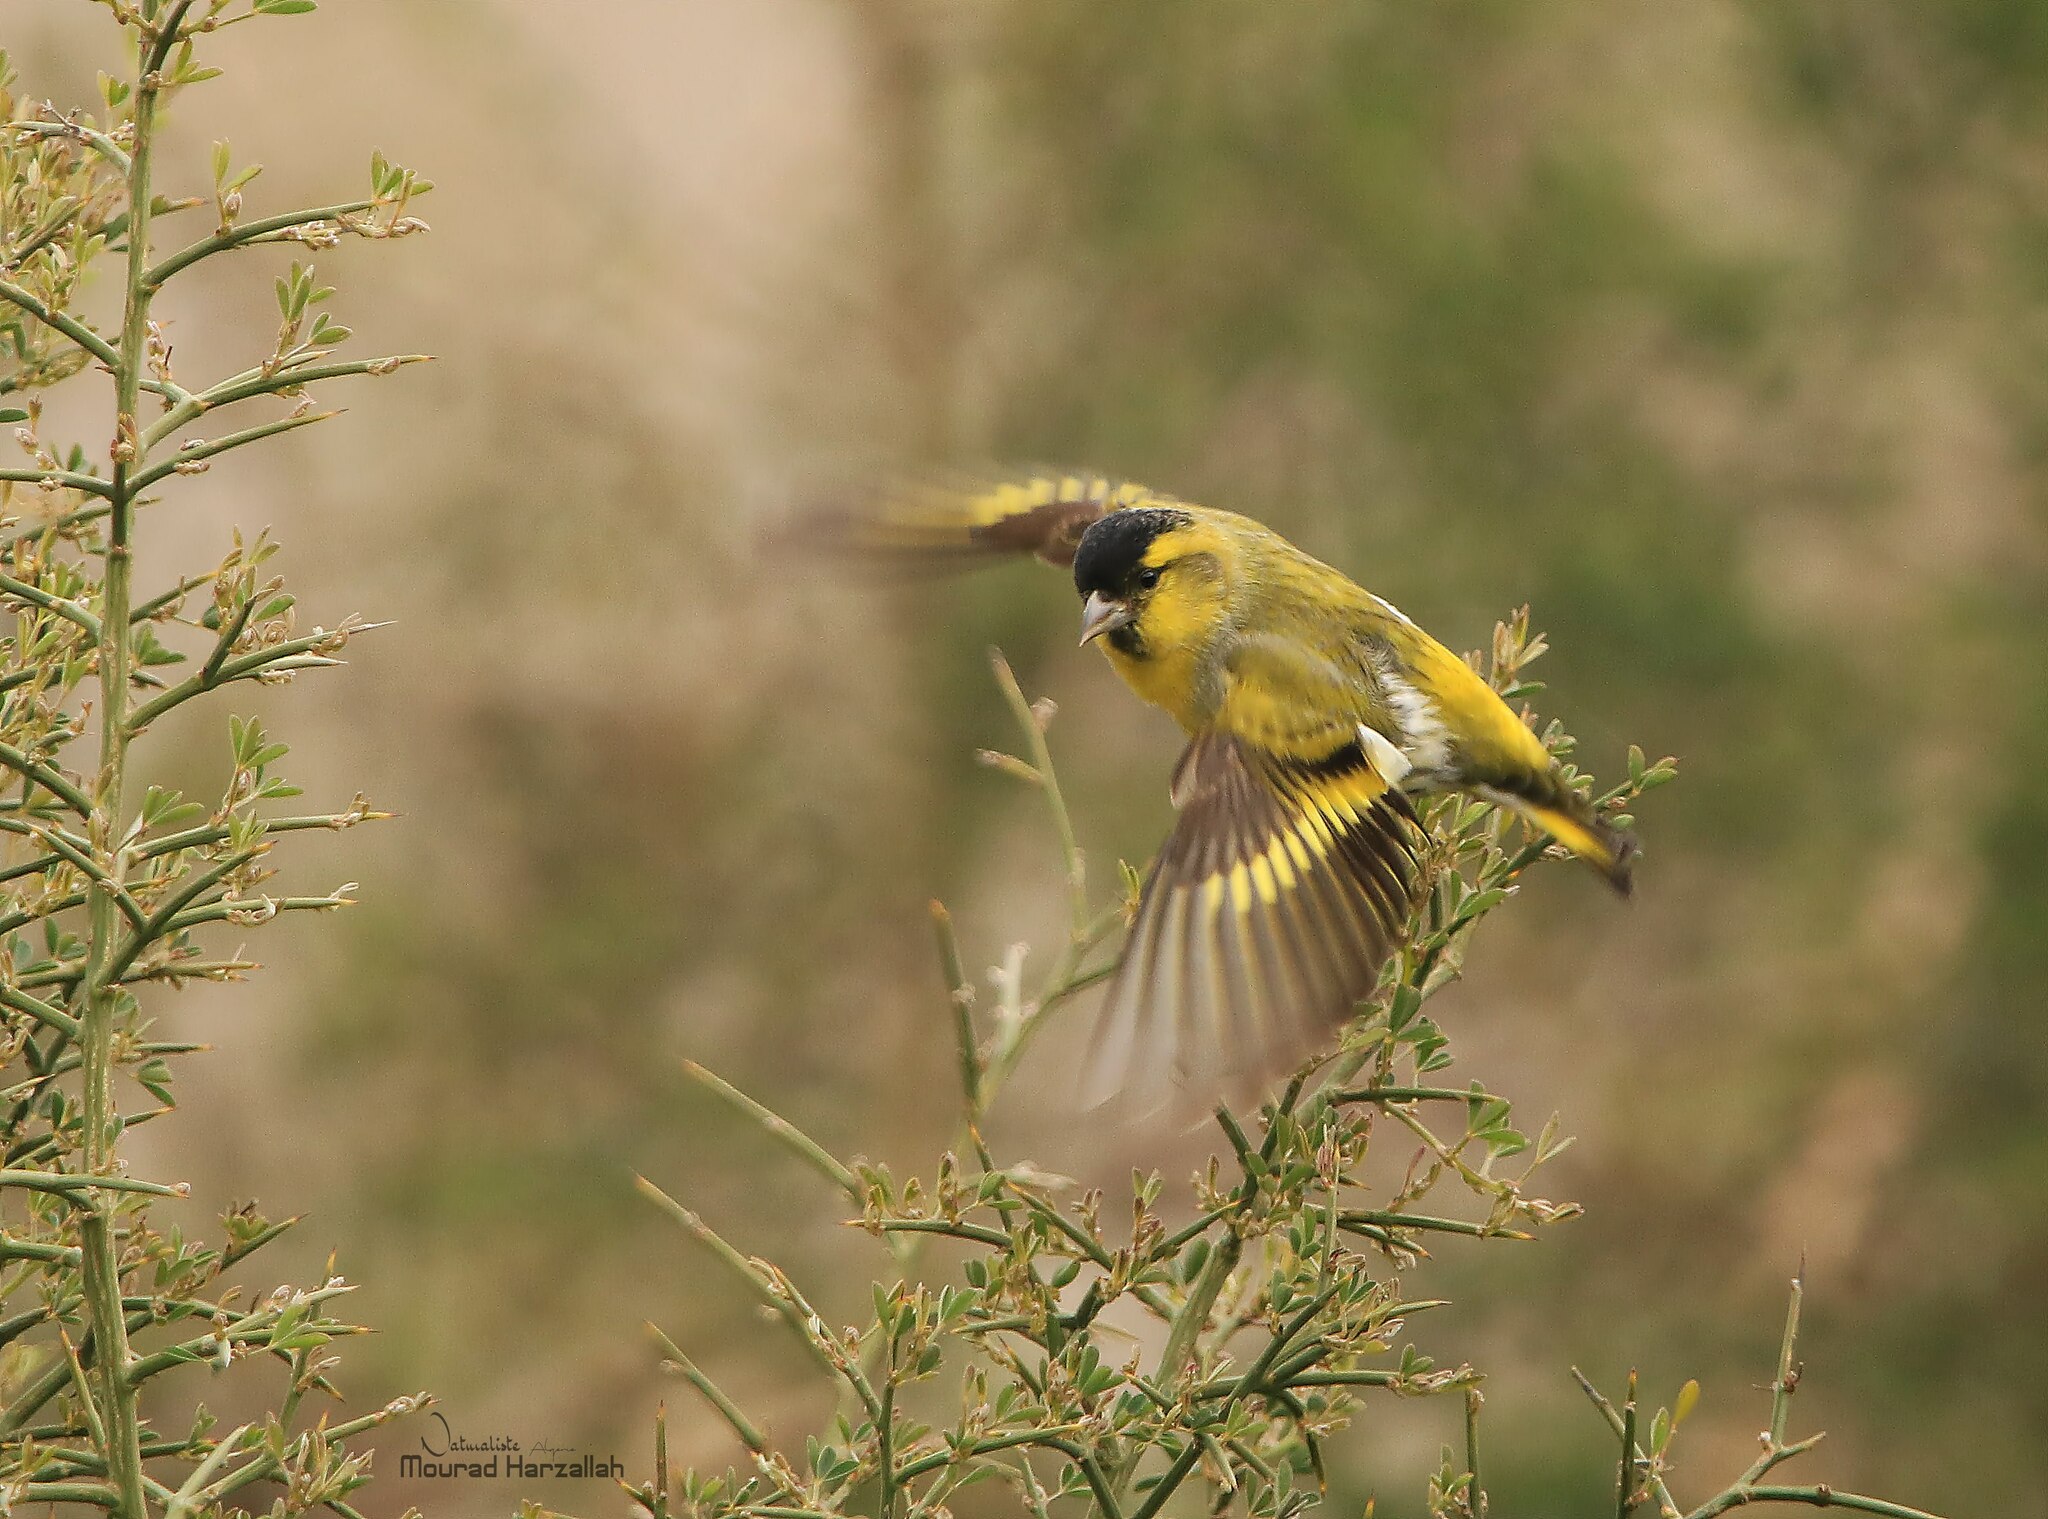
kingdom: Animalia
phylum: Chordata
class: Aves
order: Passeriformes
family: Fringillidae
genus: Spinus
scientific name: Spinus spinus
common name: Eurasian siskin
